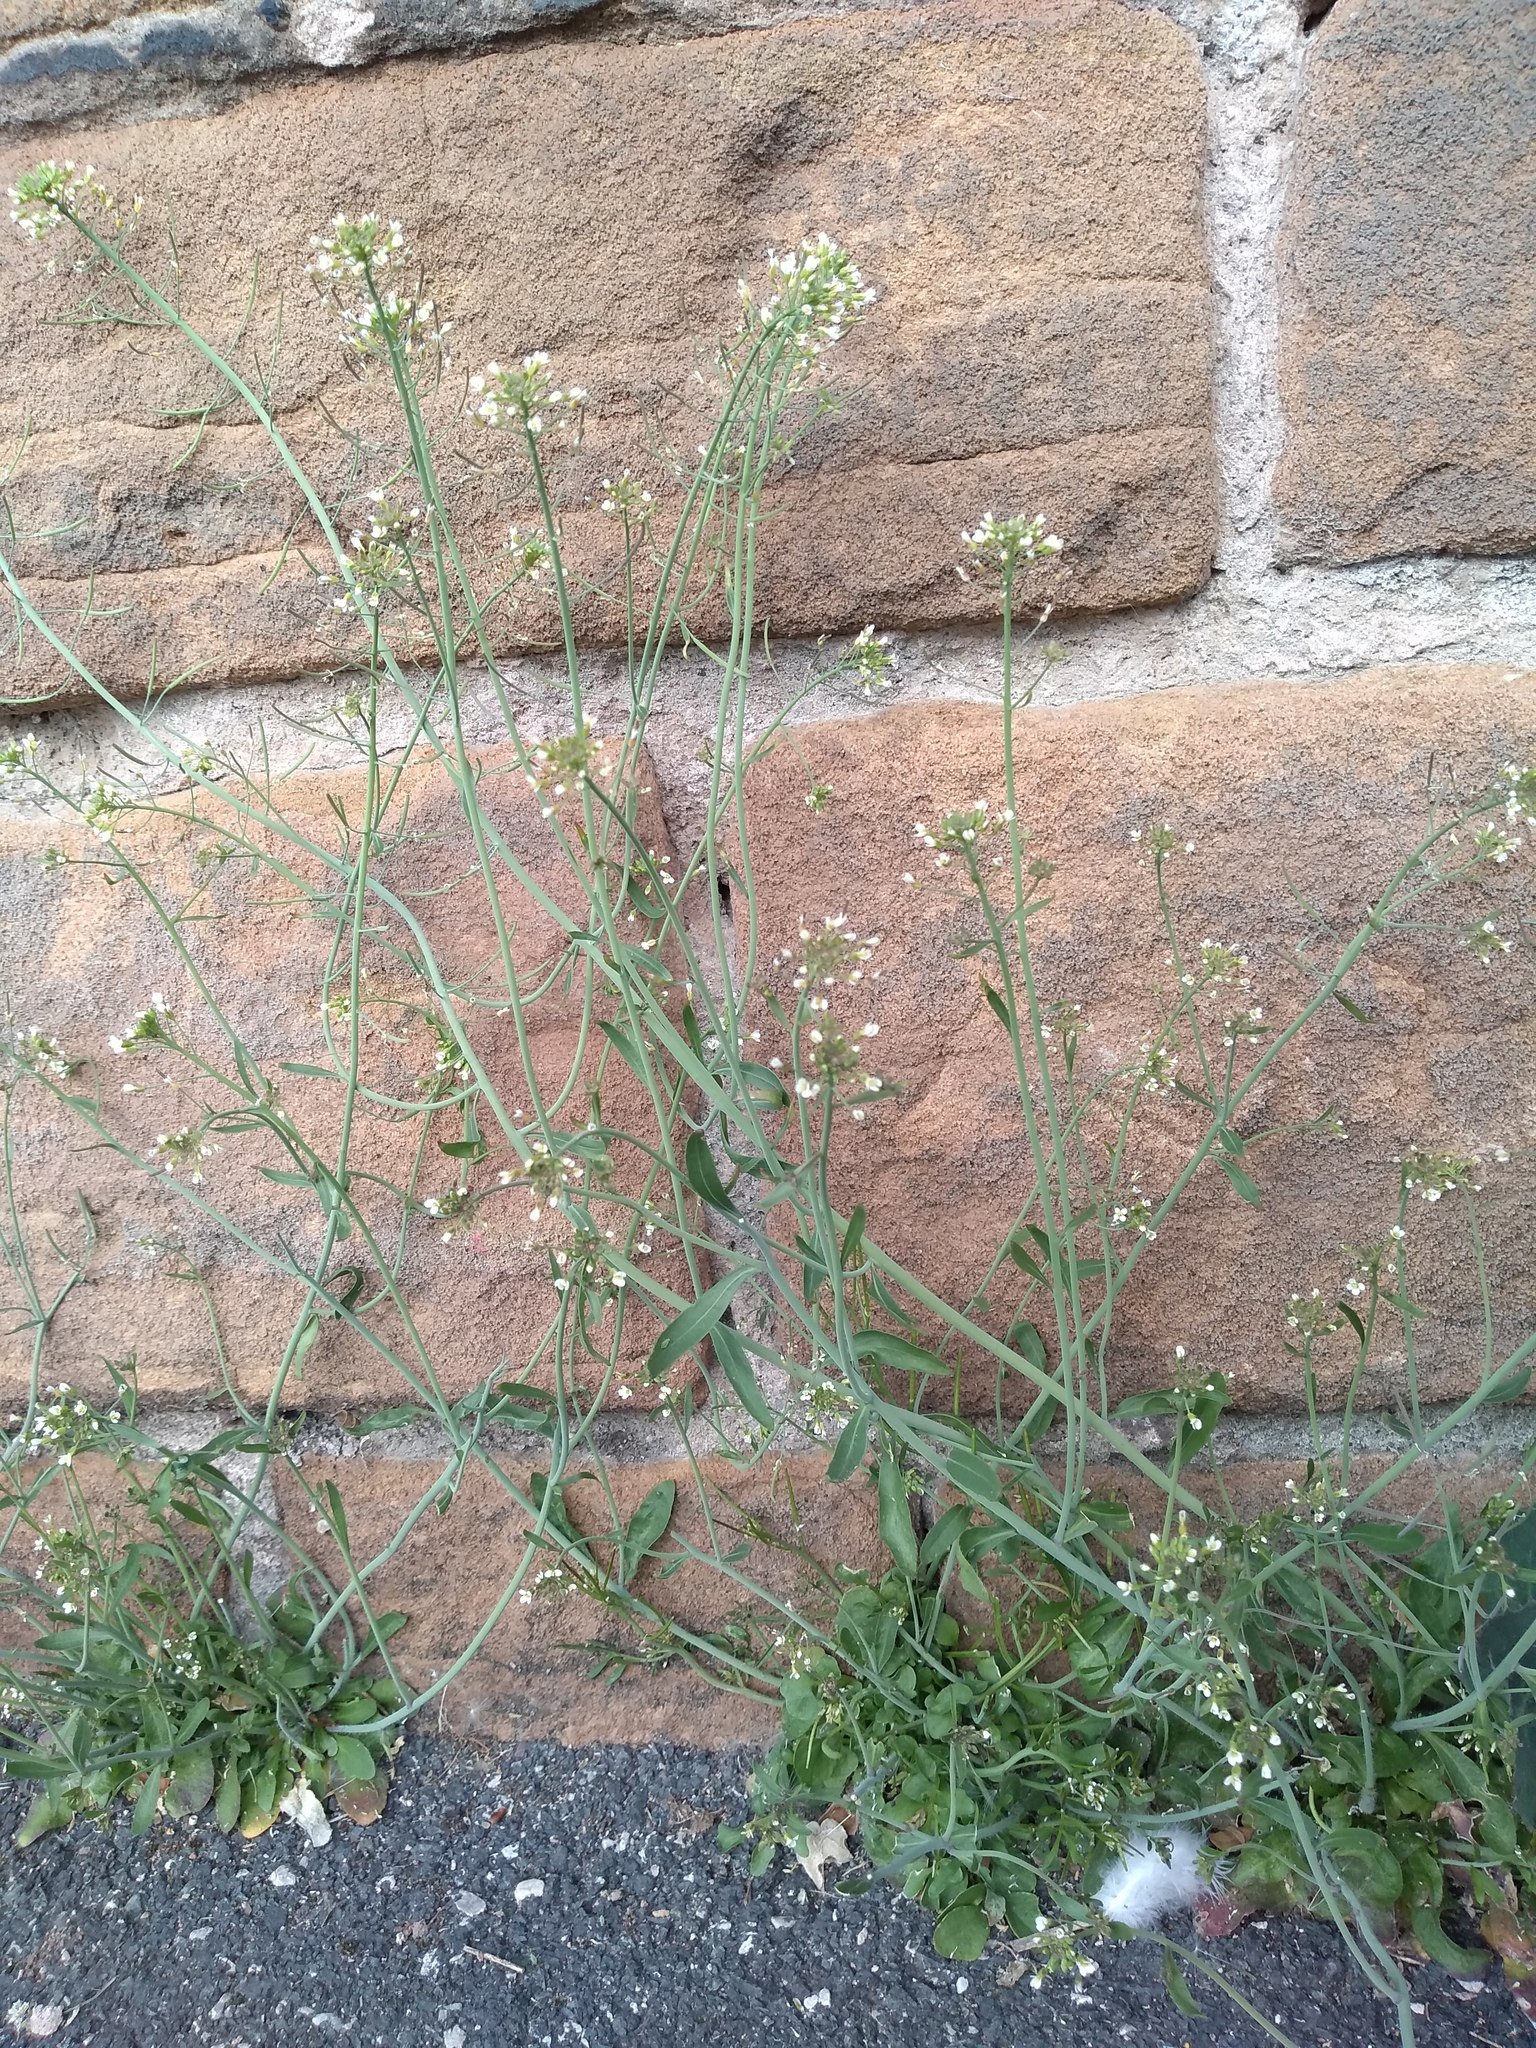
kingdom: Plantae
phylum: Tracheophyta
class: Magnoliopsida
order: Brassicales
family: Brassicaceae
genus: Arabidopsis
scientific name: Arabidopsis thaliana
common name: Thale cress
